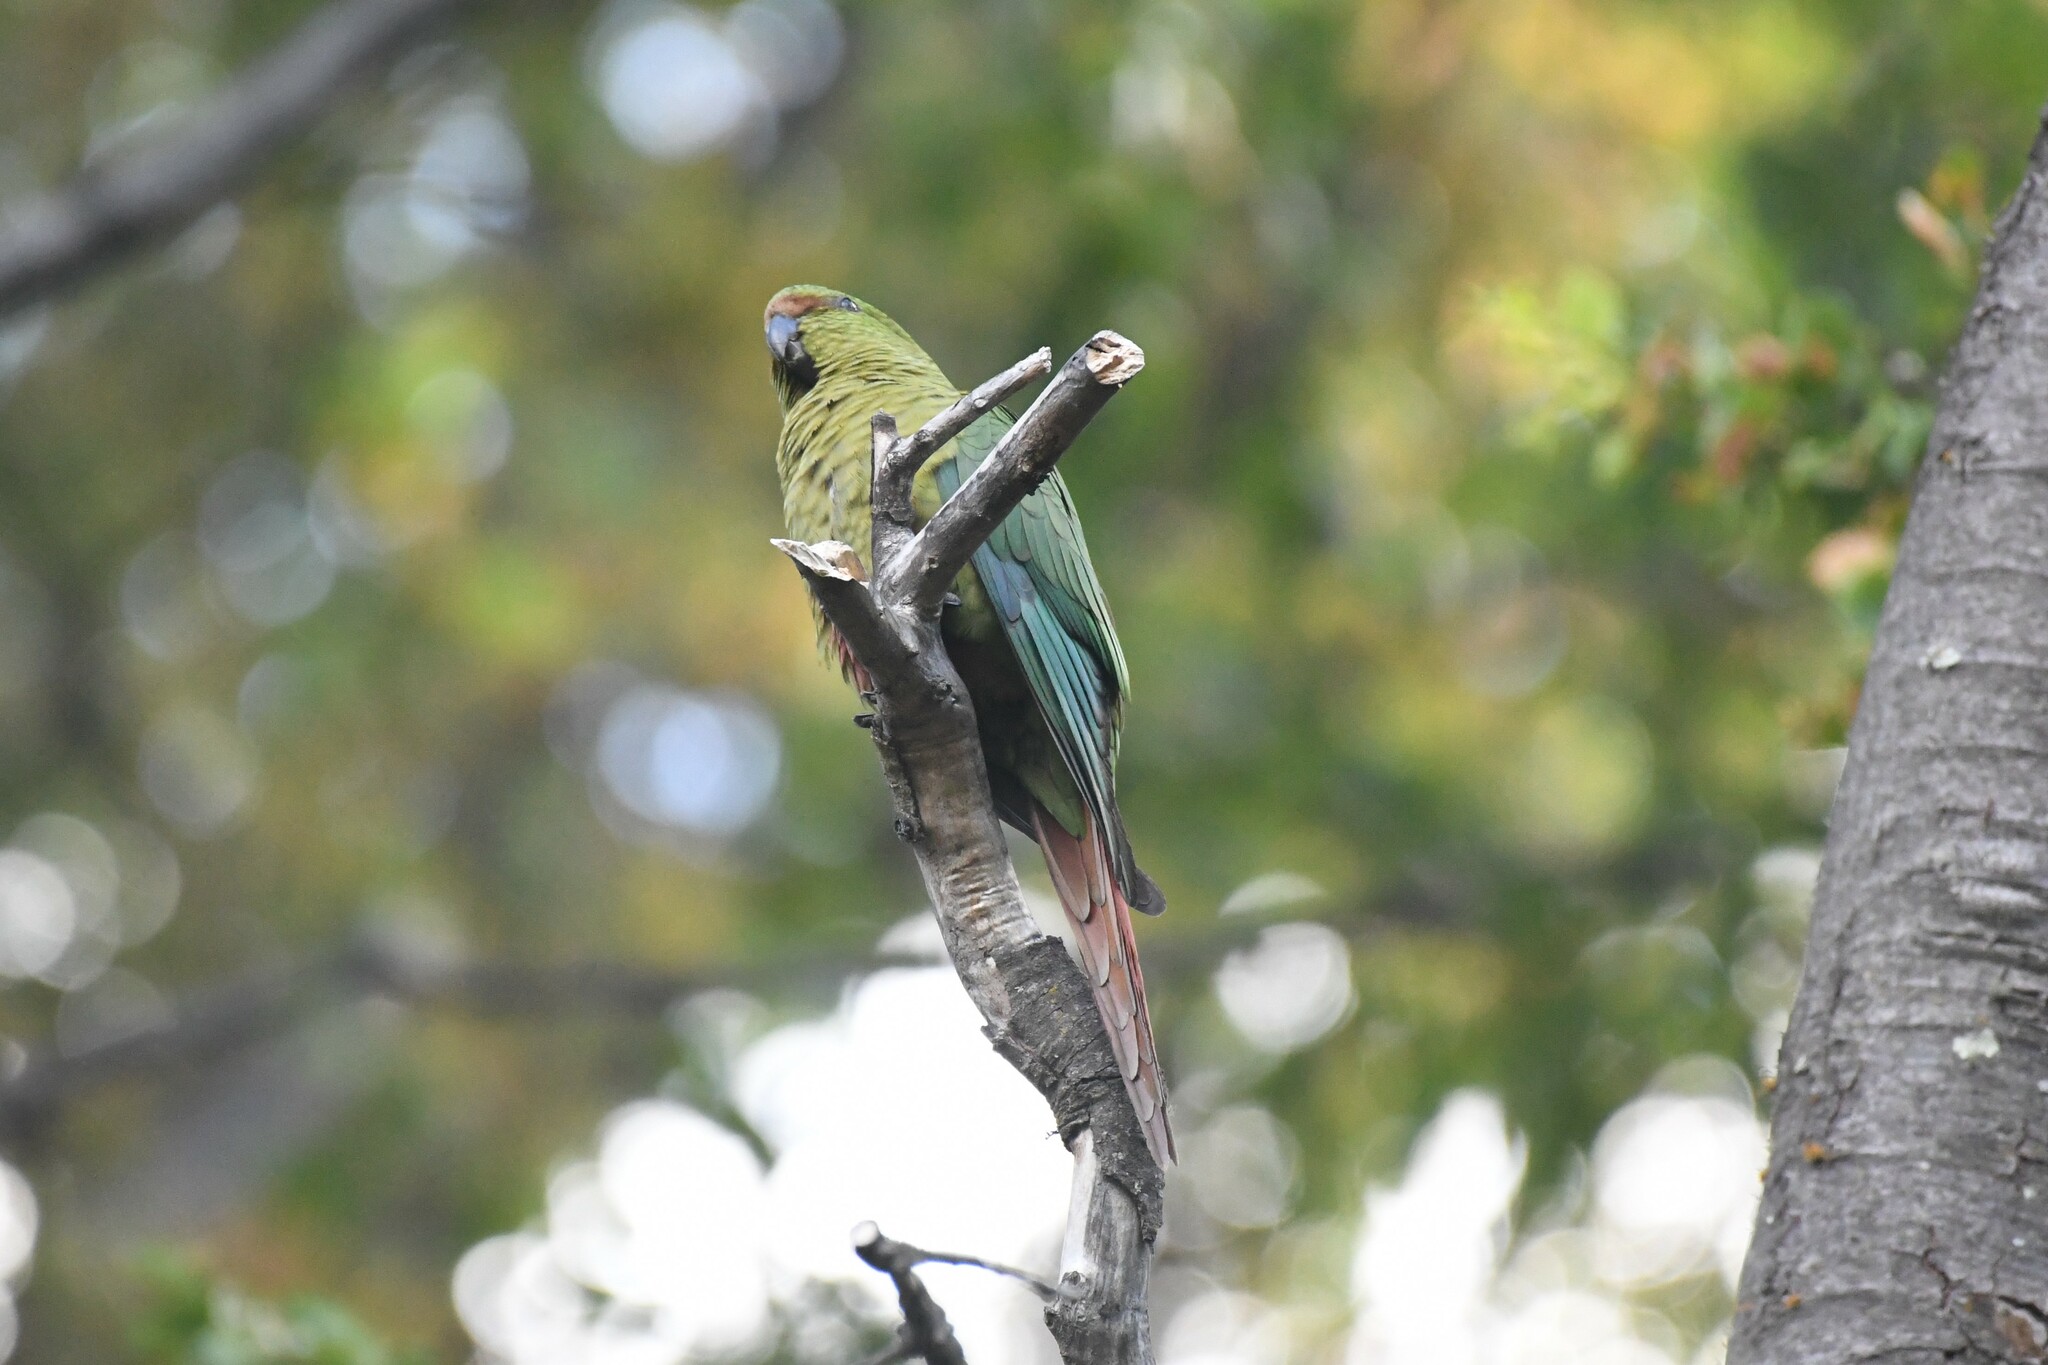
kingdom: Animalia
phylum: Chordata
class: Aves
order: Psittaciformes
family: Psittacidae
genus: Enicognathus
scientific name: Enicognathus ferrugineus
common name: Austral parakeet
